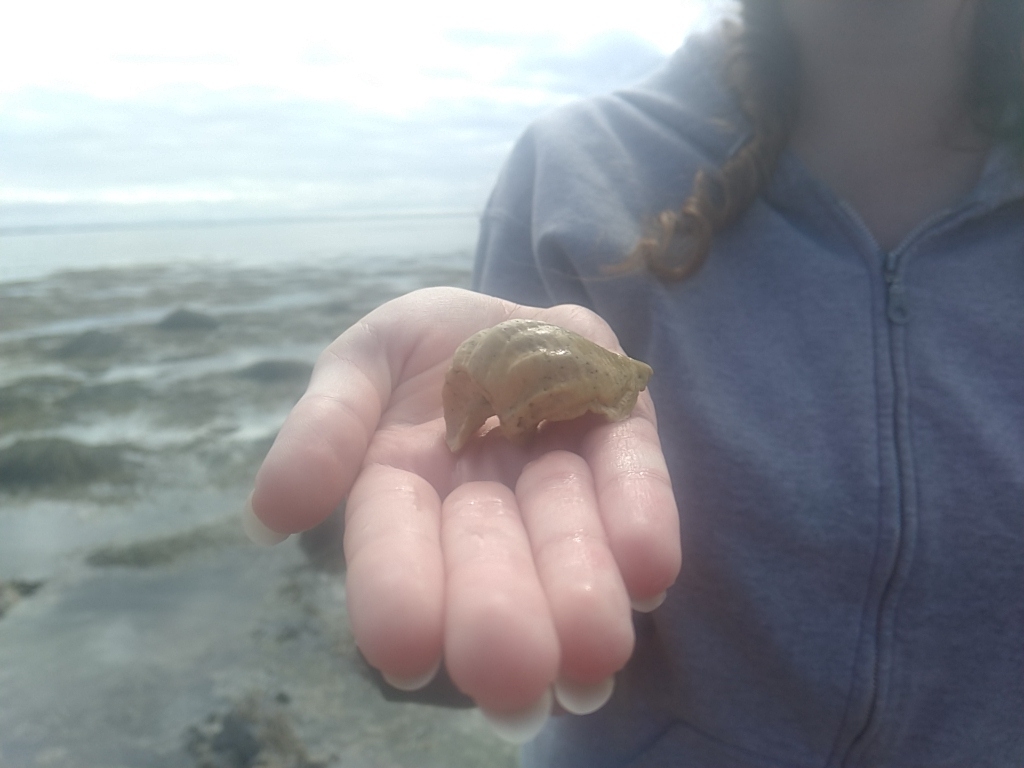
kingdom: Animalia
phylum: Mollusca
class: Gastropoda
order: Neogastropoda
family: Buccinidae
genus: Buccinum
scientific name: Buccinum undatum
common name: Common whelk
